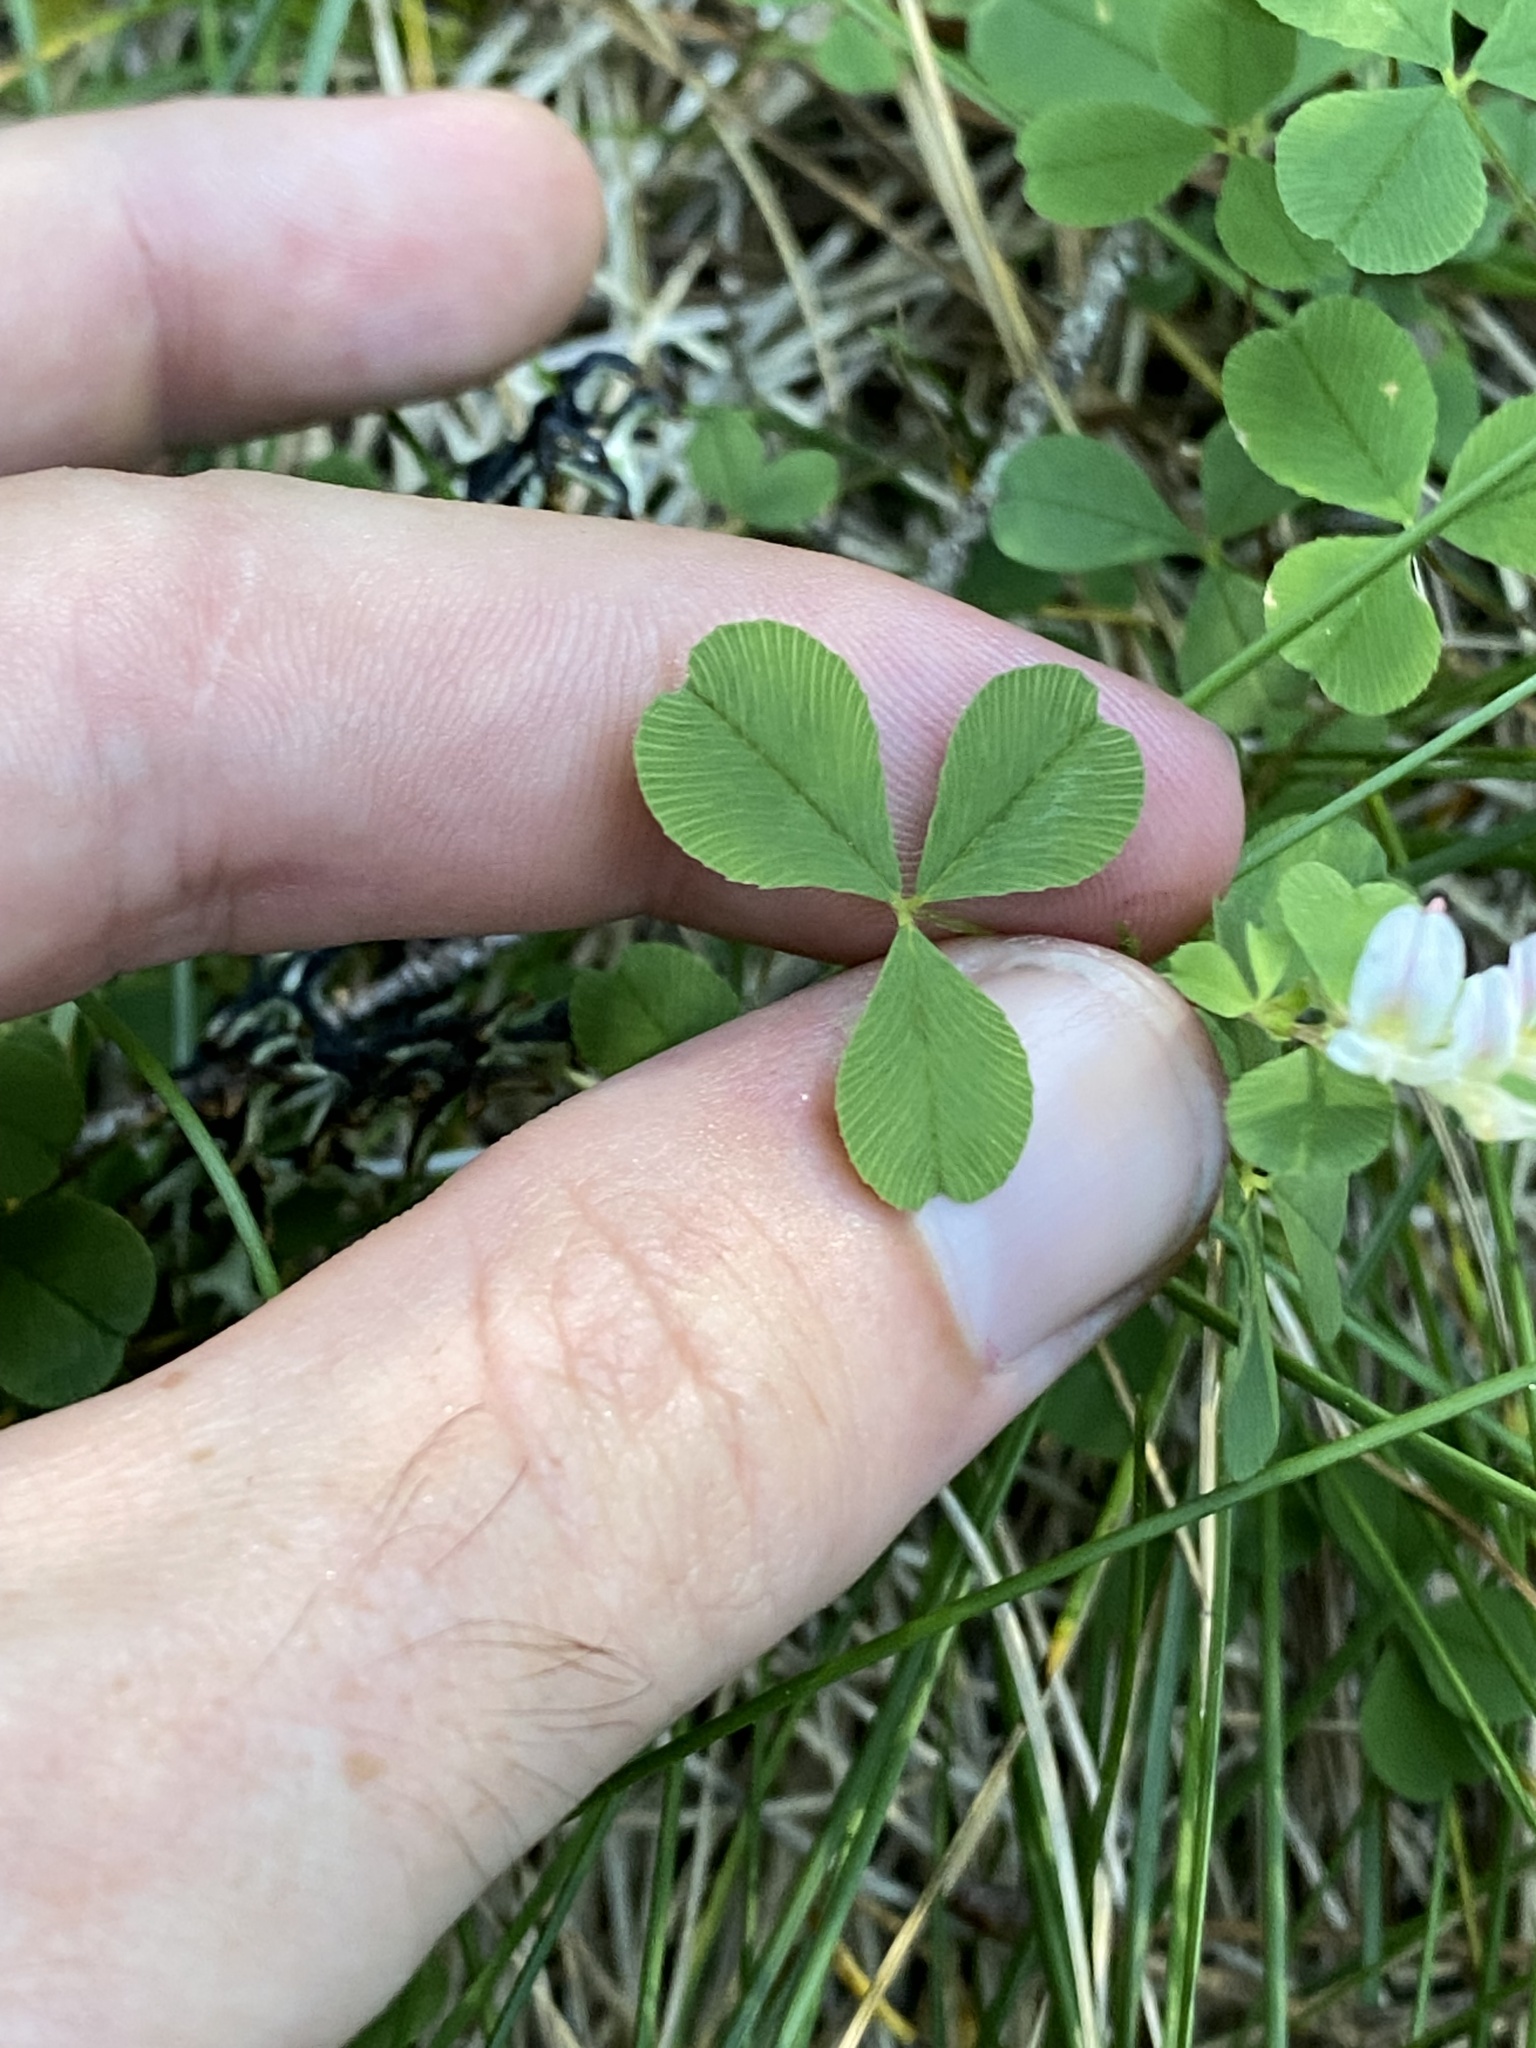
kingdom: Plantae
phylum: Tracheophyta
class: Magnoliopsida
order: Fabales
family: Fabaceae
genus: Trifolium
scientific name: Trifolium breweri
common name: Forest clover
